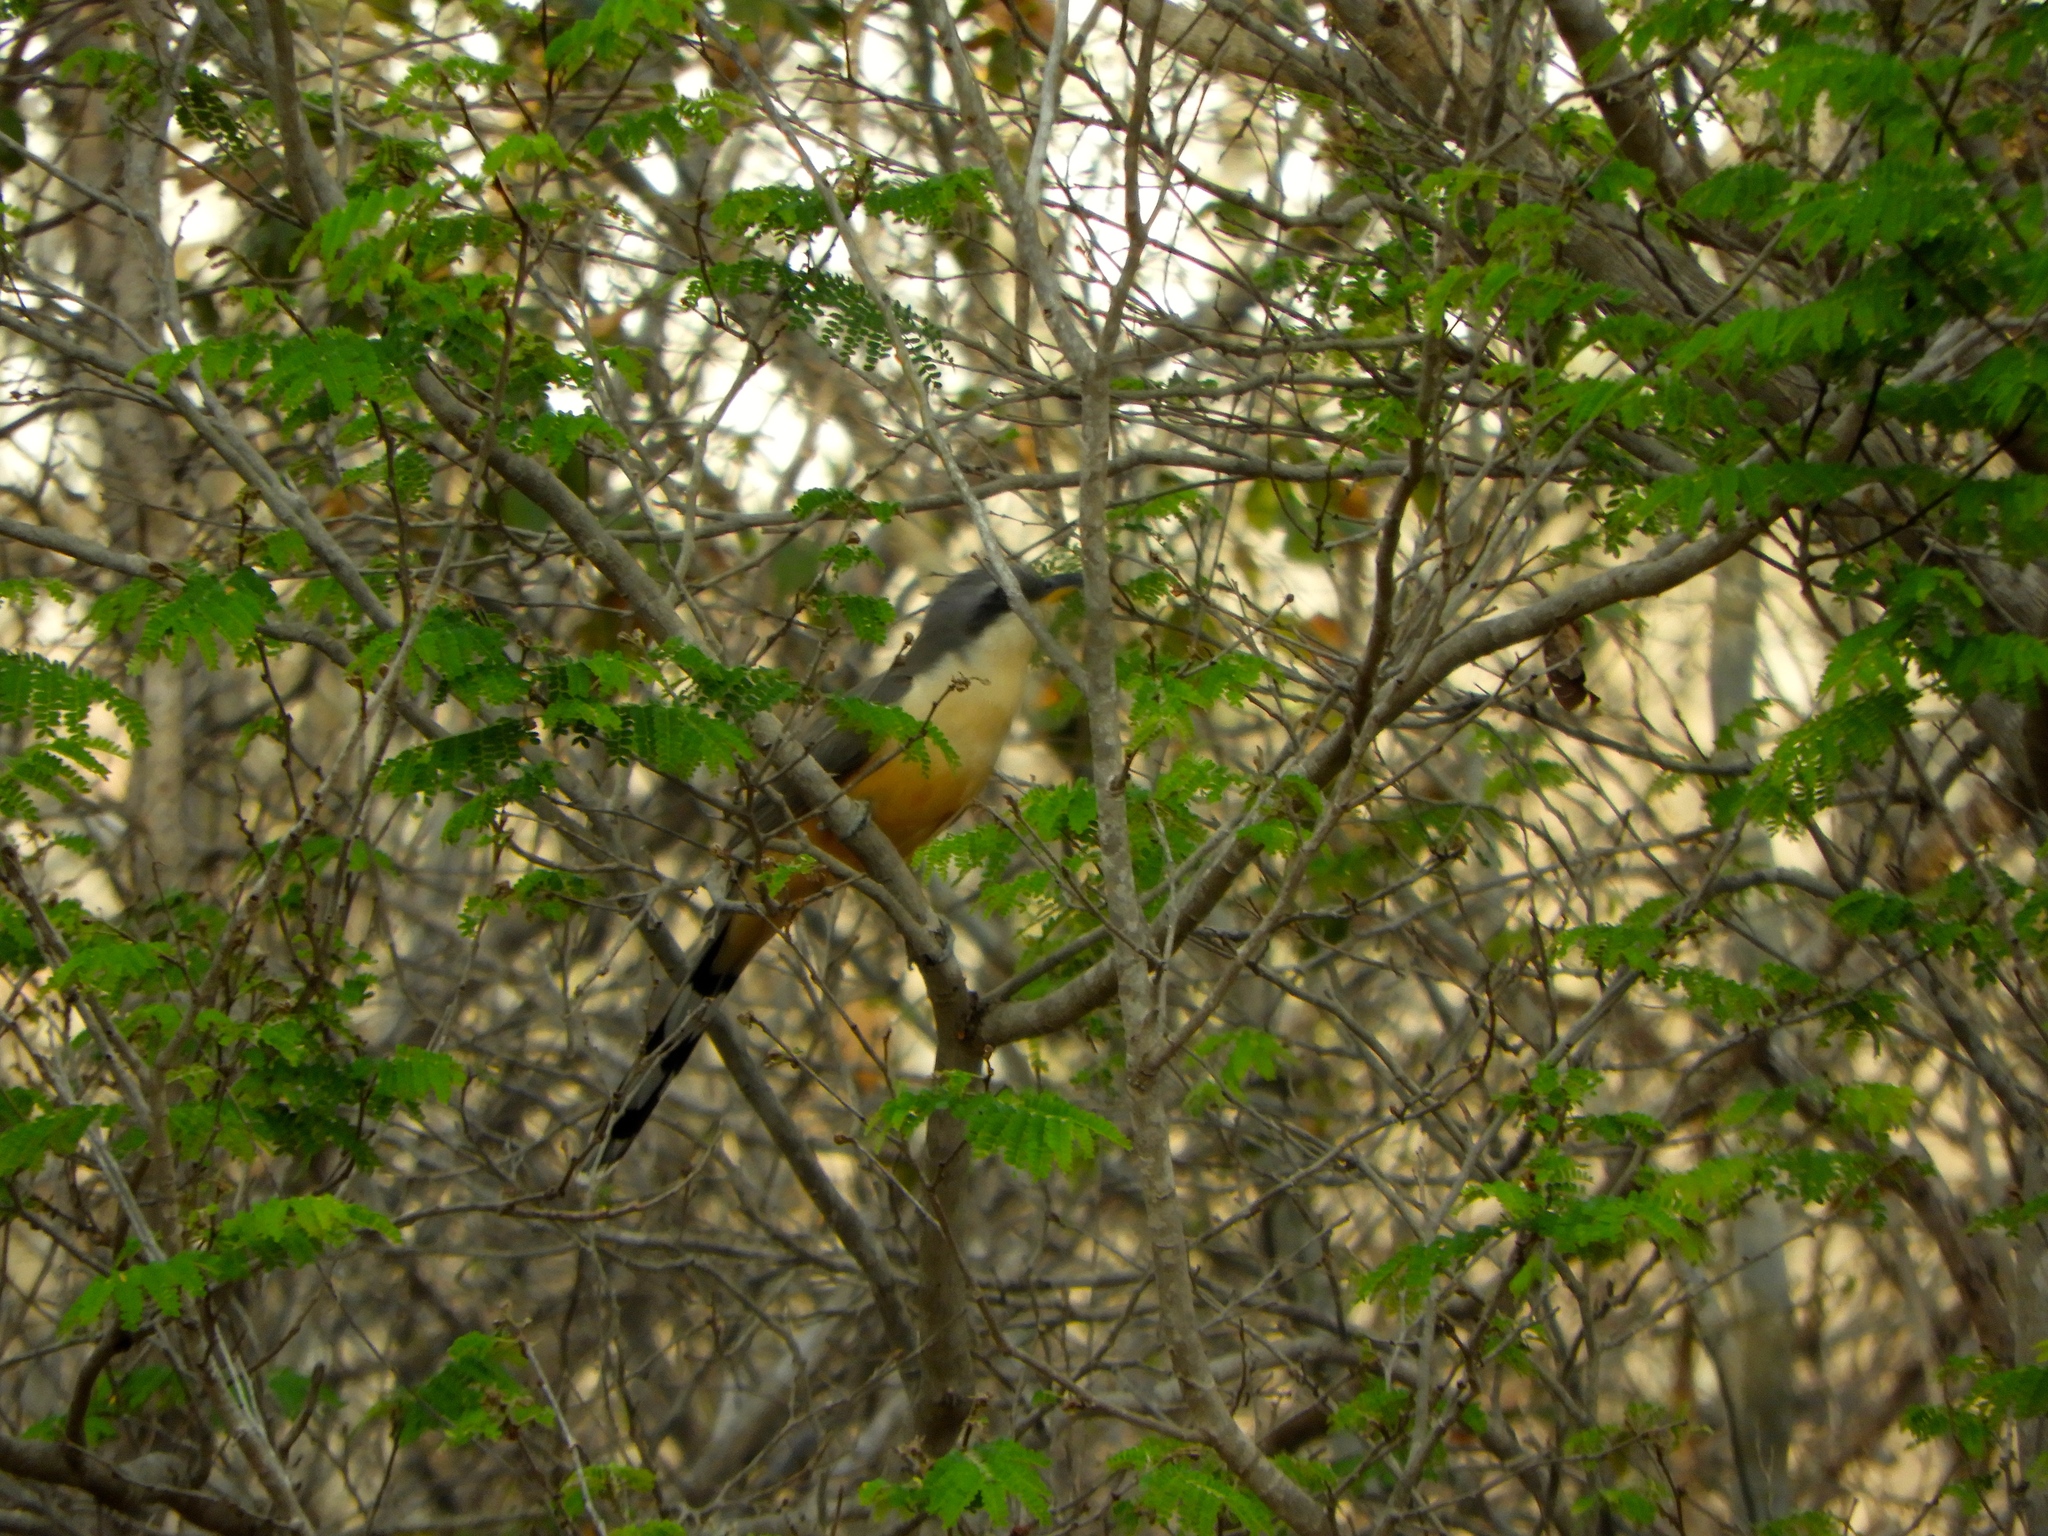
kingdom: Animalia
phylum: Chordata
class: Aves
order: Cuculiformes
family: Cuculidae
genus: Coccyzus
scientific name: Coccyzus minor
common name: Mangrove cuckoo
